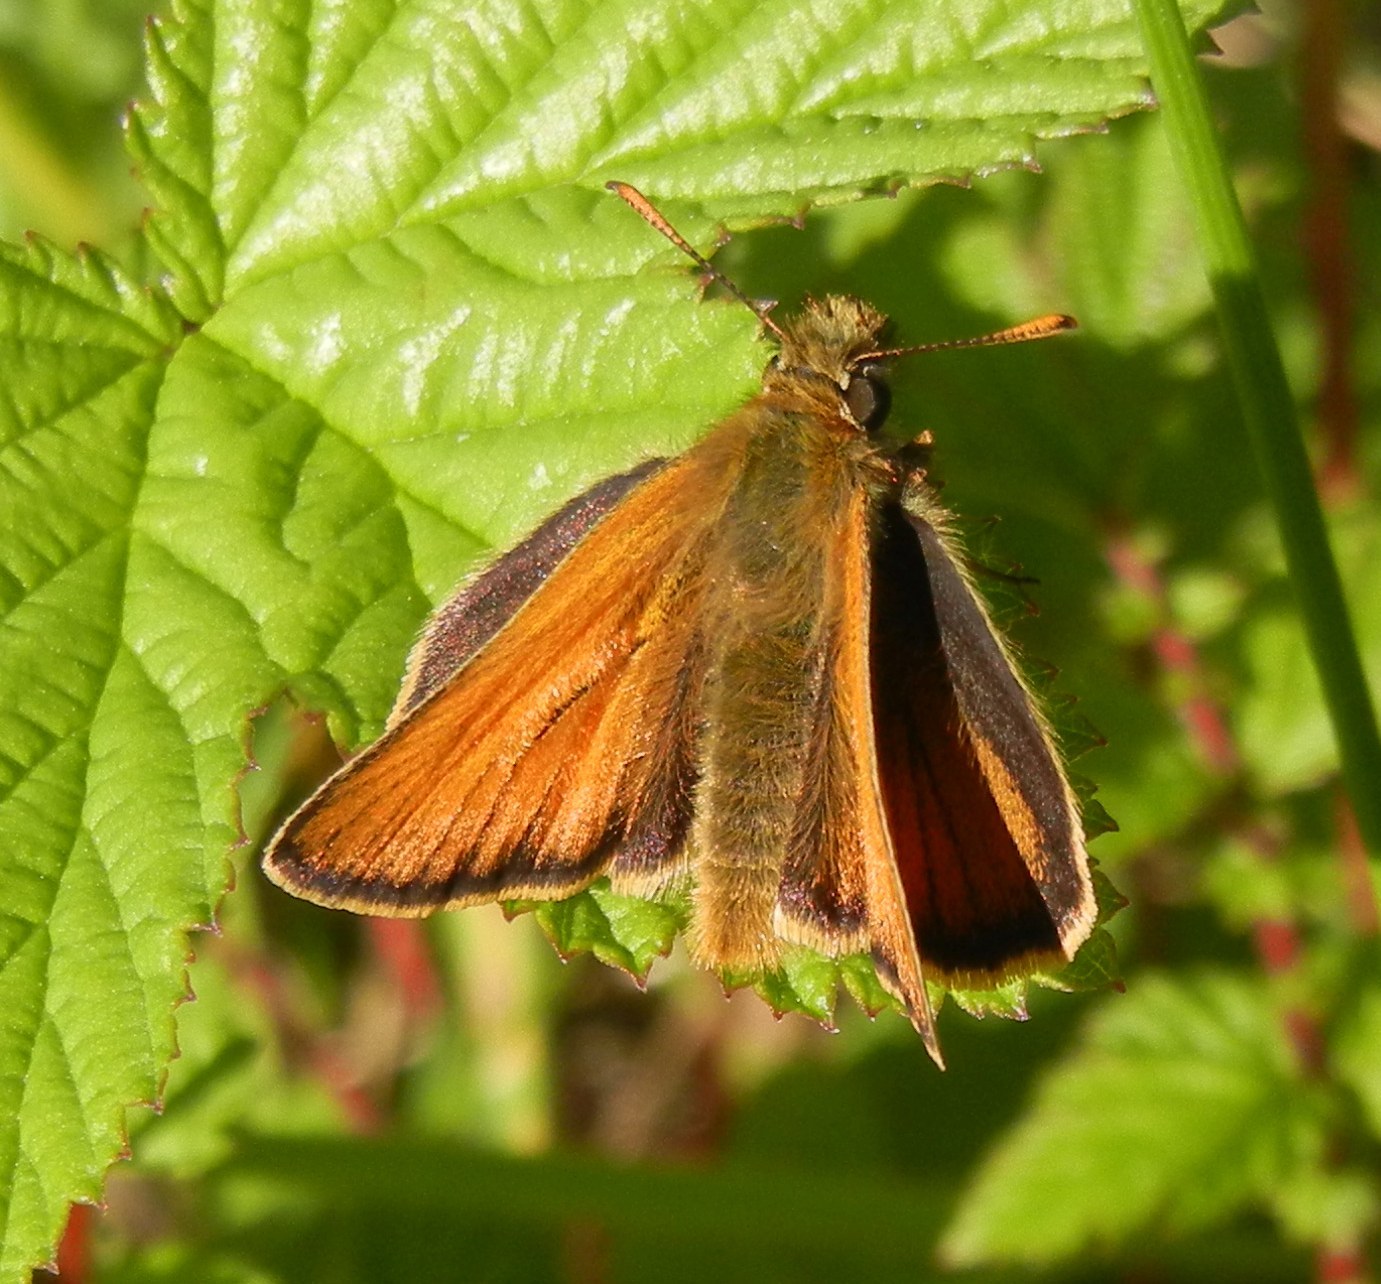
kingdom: Animalia
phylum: Arthropoda
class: Insecta
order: Lepidoptera
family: Hesperiidae
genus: Thymelicus
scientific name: Thymelicus sylvestris
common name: Small skipper
